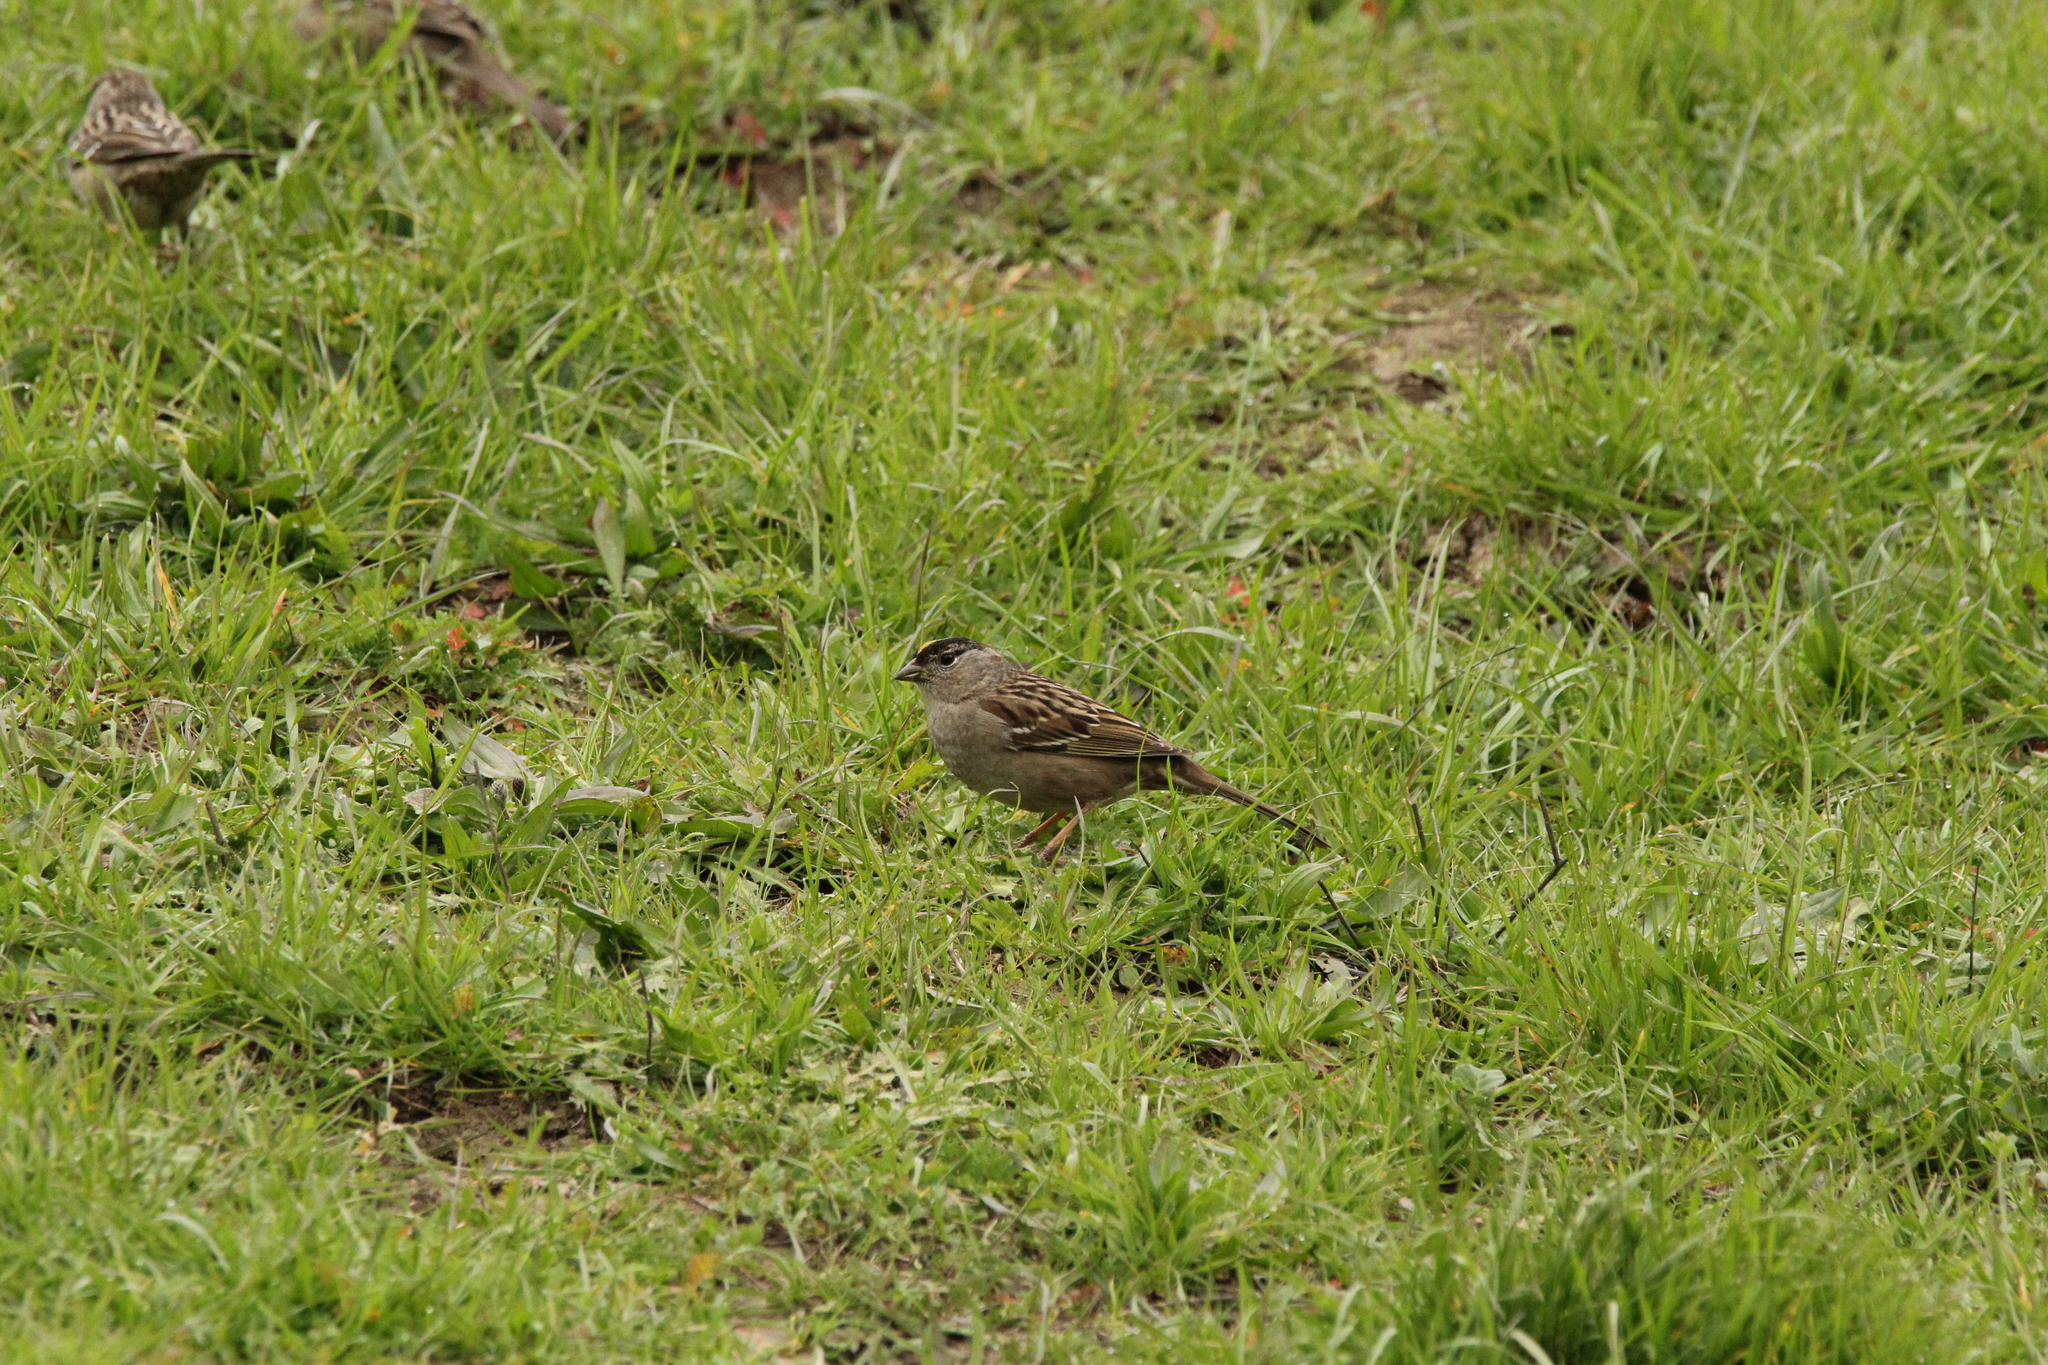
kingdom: Animalia
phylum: Chordata
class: Aves
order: Passeriformes
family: Passerellidae
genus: Zonotrichia
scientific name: Zonotrichia atricapilla
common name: Golden-crowned sparrow
